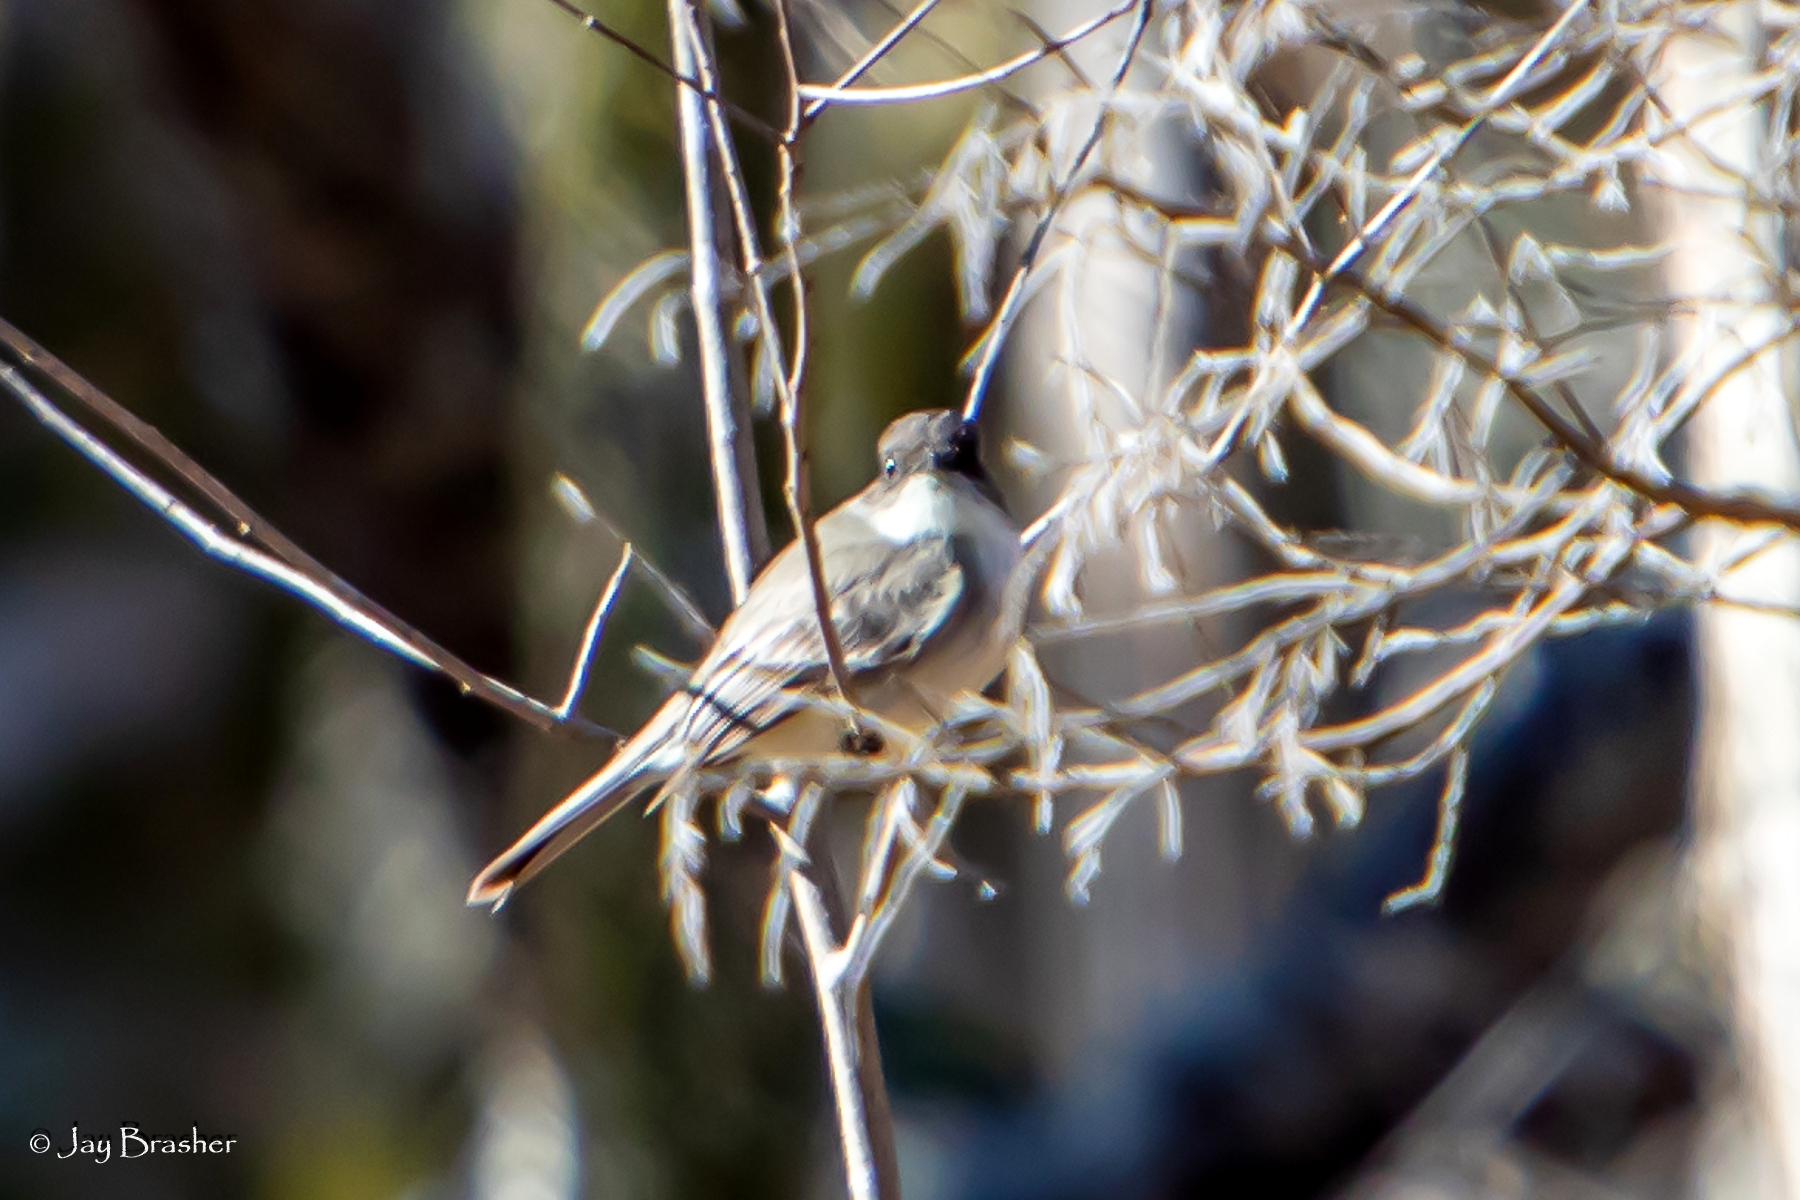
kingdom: Animalia
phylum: Chordata
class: Aves
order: Passeriformes
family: Tyrannidae
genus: Sayornis
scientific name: Sayornis phoebe
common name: Eastern phoebe
